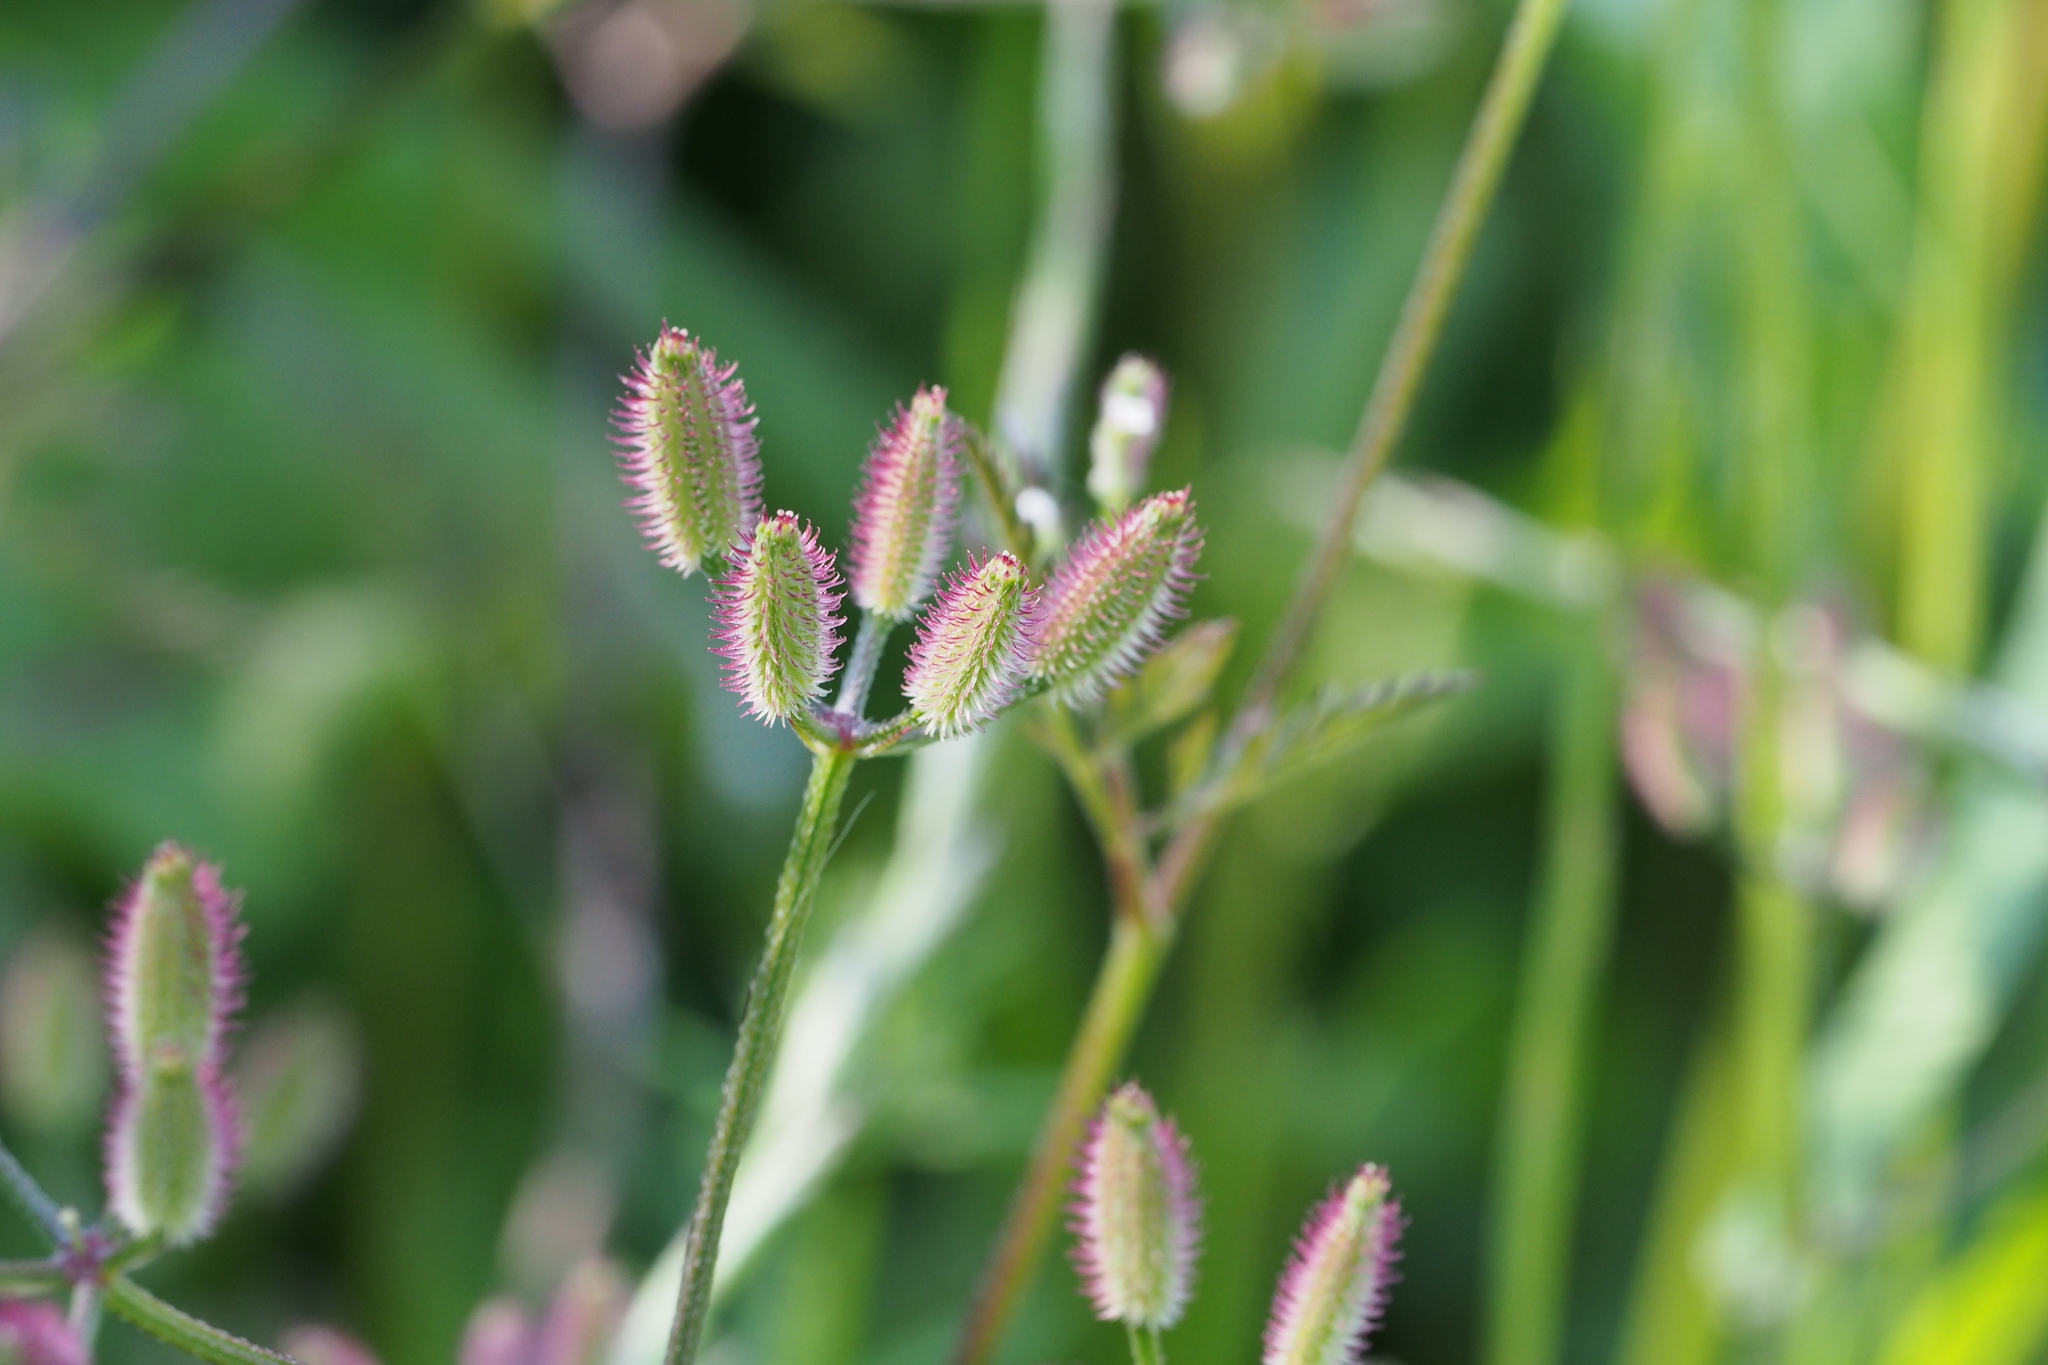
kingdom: Plantae
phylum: Tracheophyta
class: Magnoliopsida
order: Apiales
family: Apiaceae
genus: Torilis
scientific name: Torilis scabra
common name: Rough hedgeparsley
